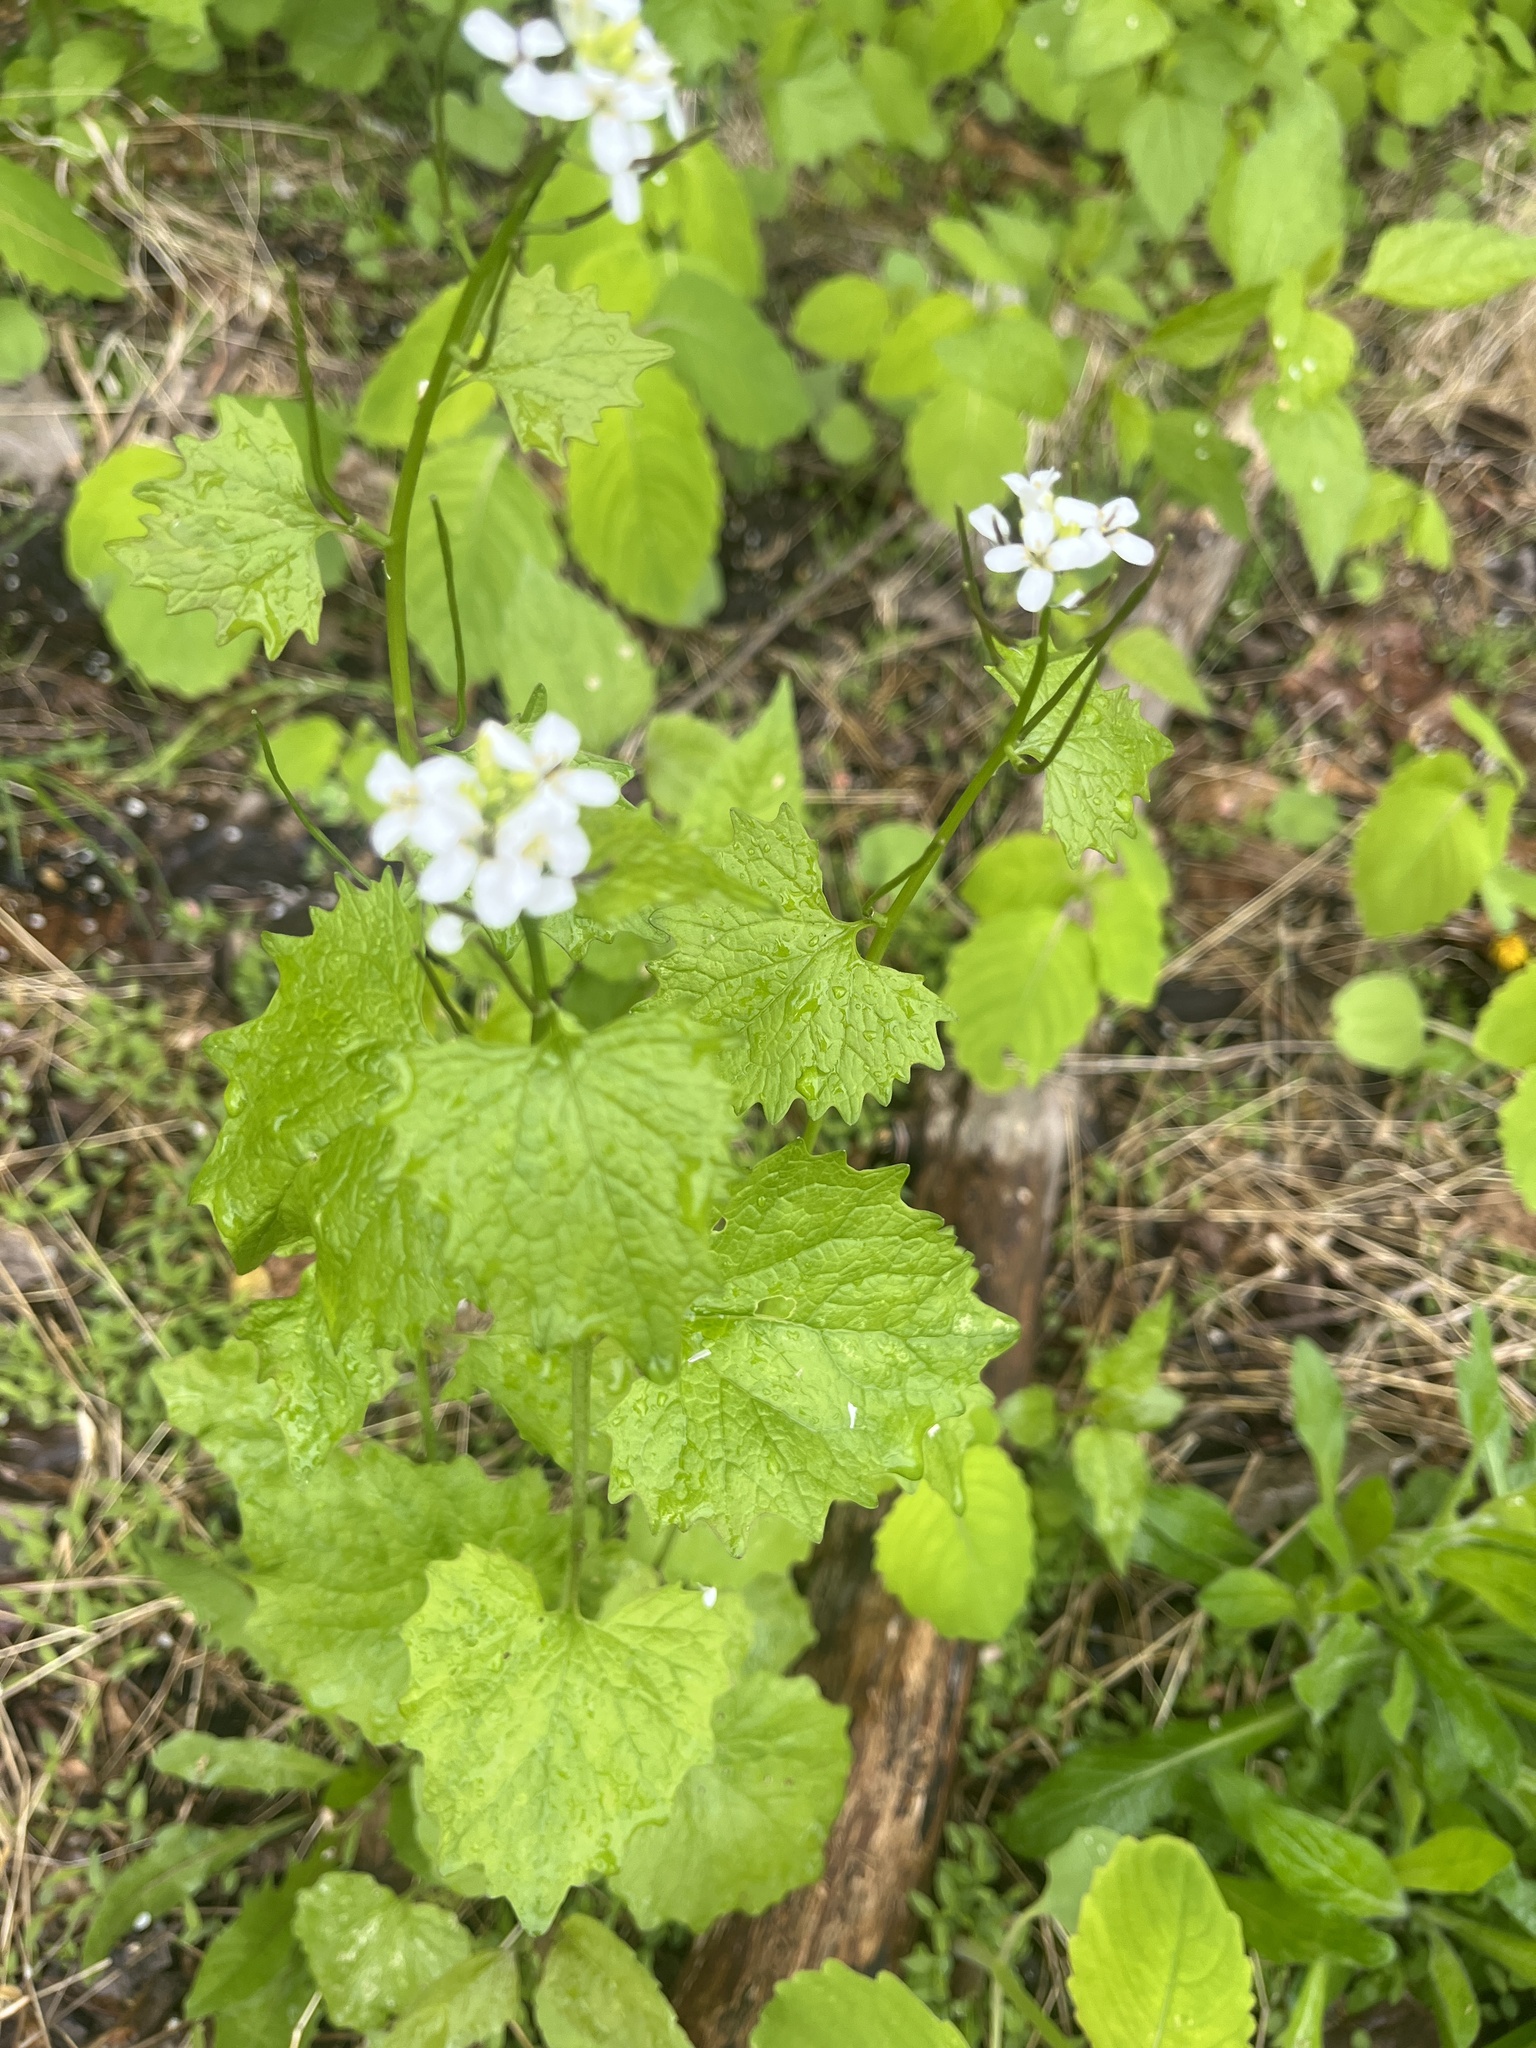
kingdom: Plantae
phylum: Tracheophyta
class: Magnoliopsida
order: Brassicales
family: Brassicaceae
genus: Alliaria
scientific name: Alliaria petiolata
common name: Garlic mustard
